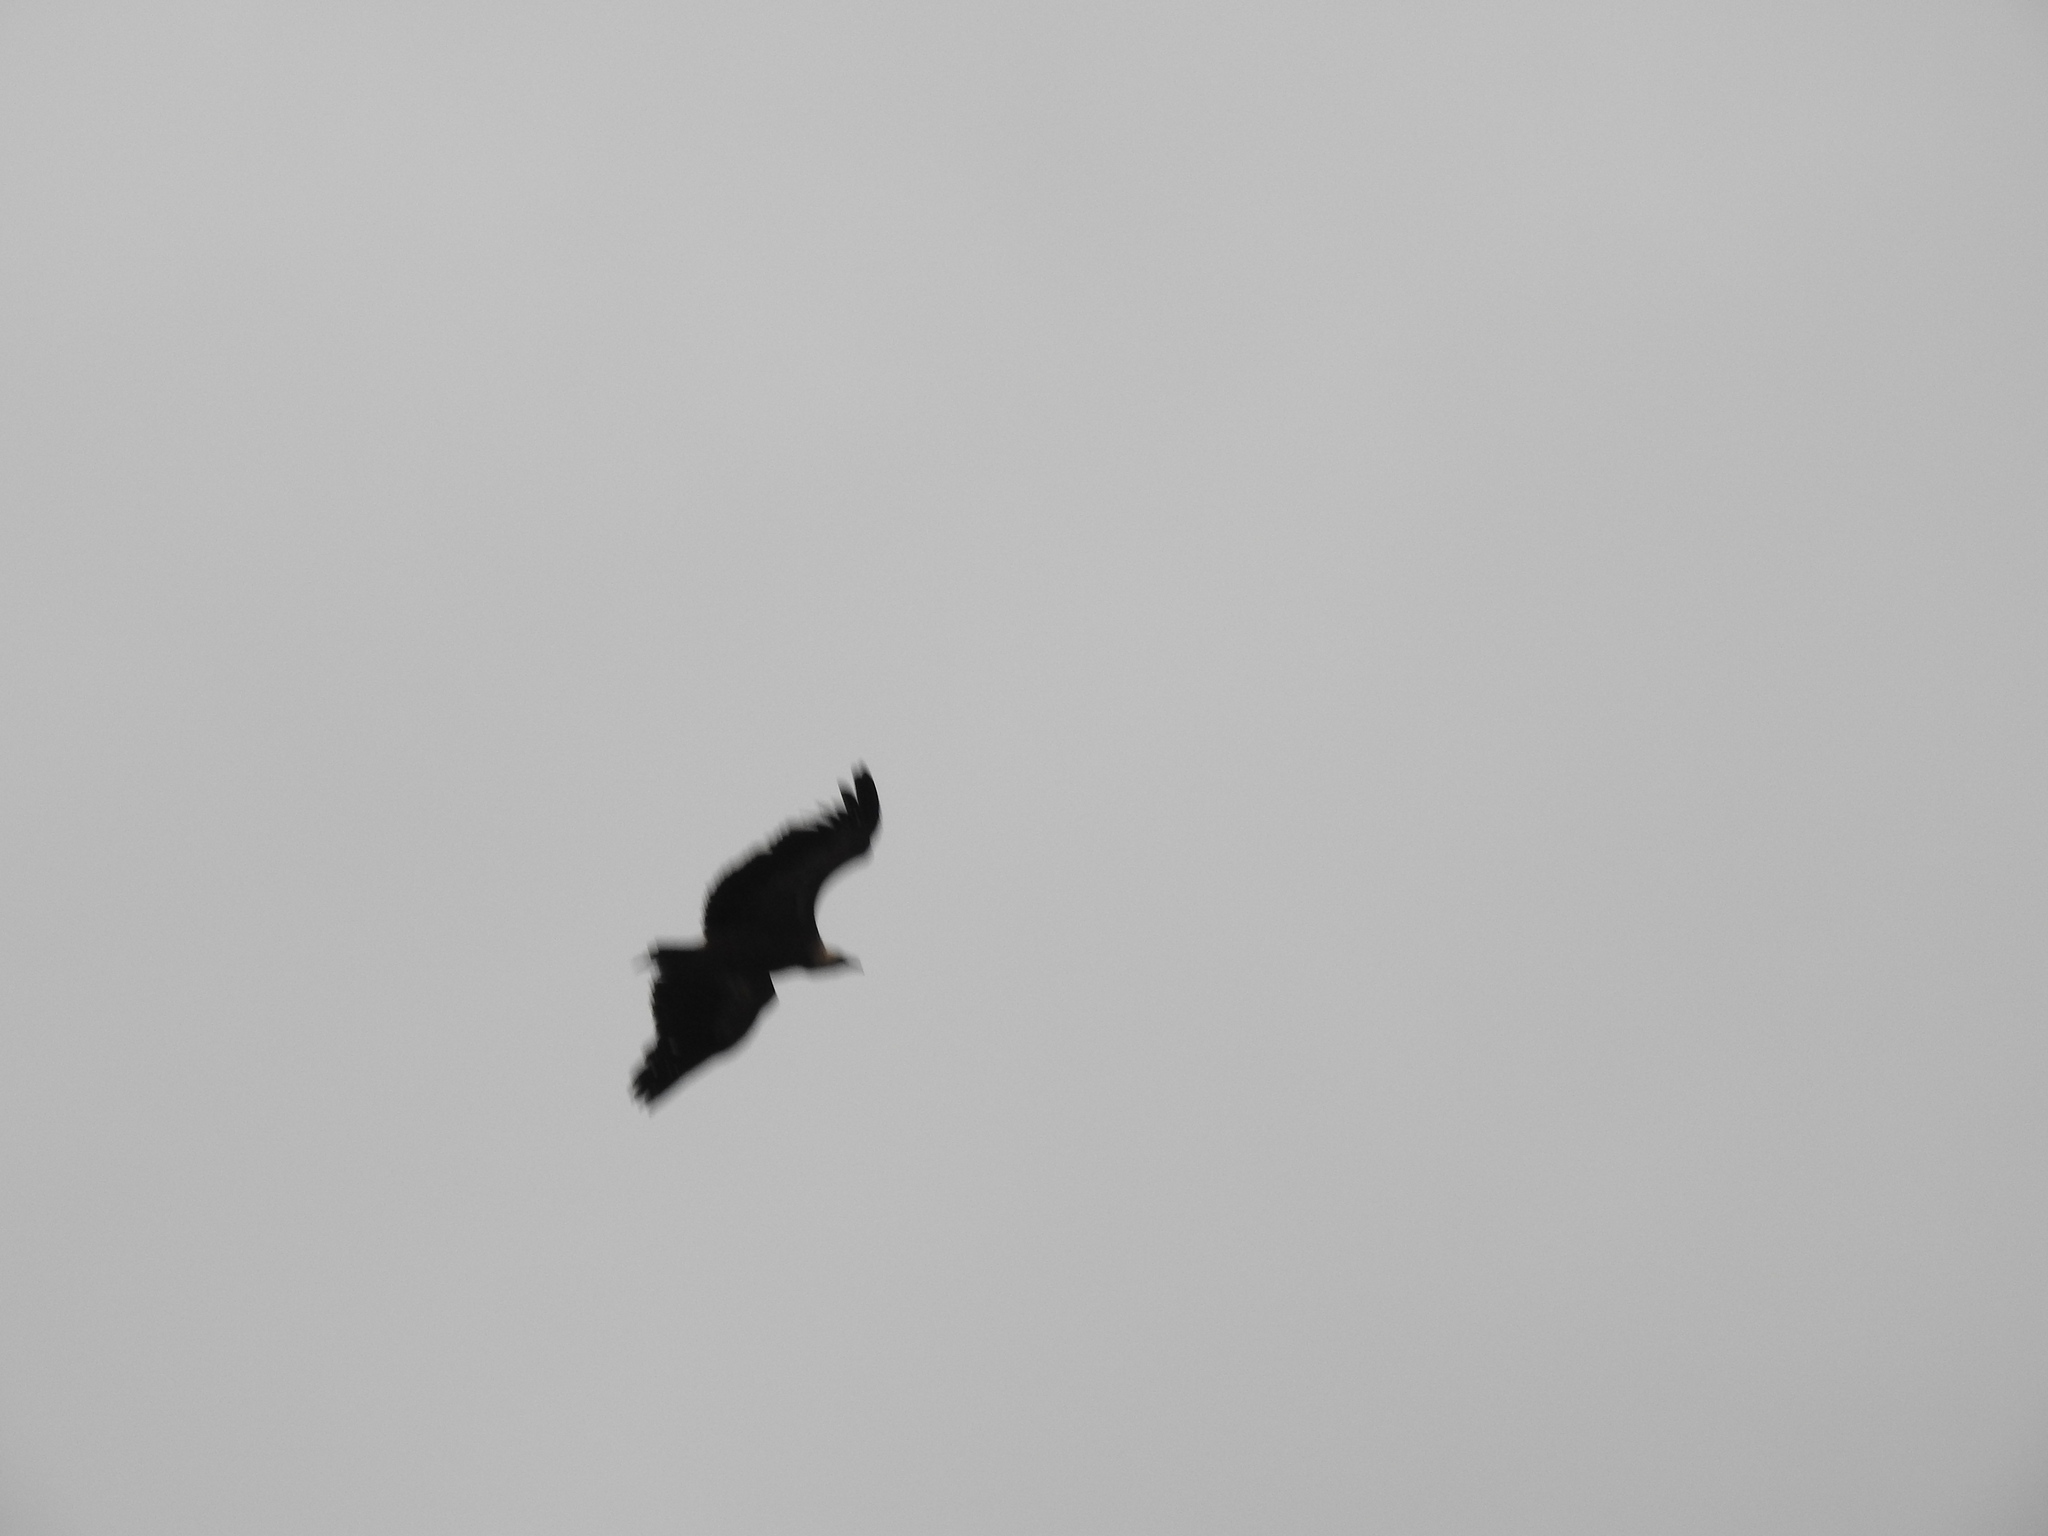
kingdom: Animalia
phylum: Chordata
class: Aves
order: Accipitriformes
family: Accipitridae
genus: Gyps
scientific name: Gyps fulvus
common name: Griffon vulture
